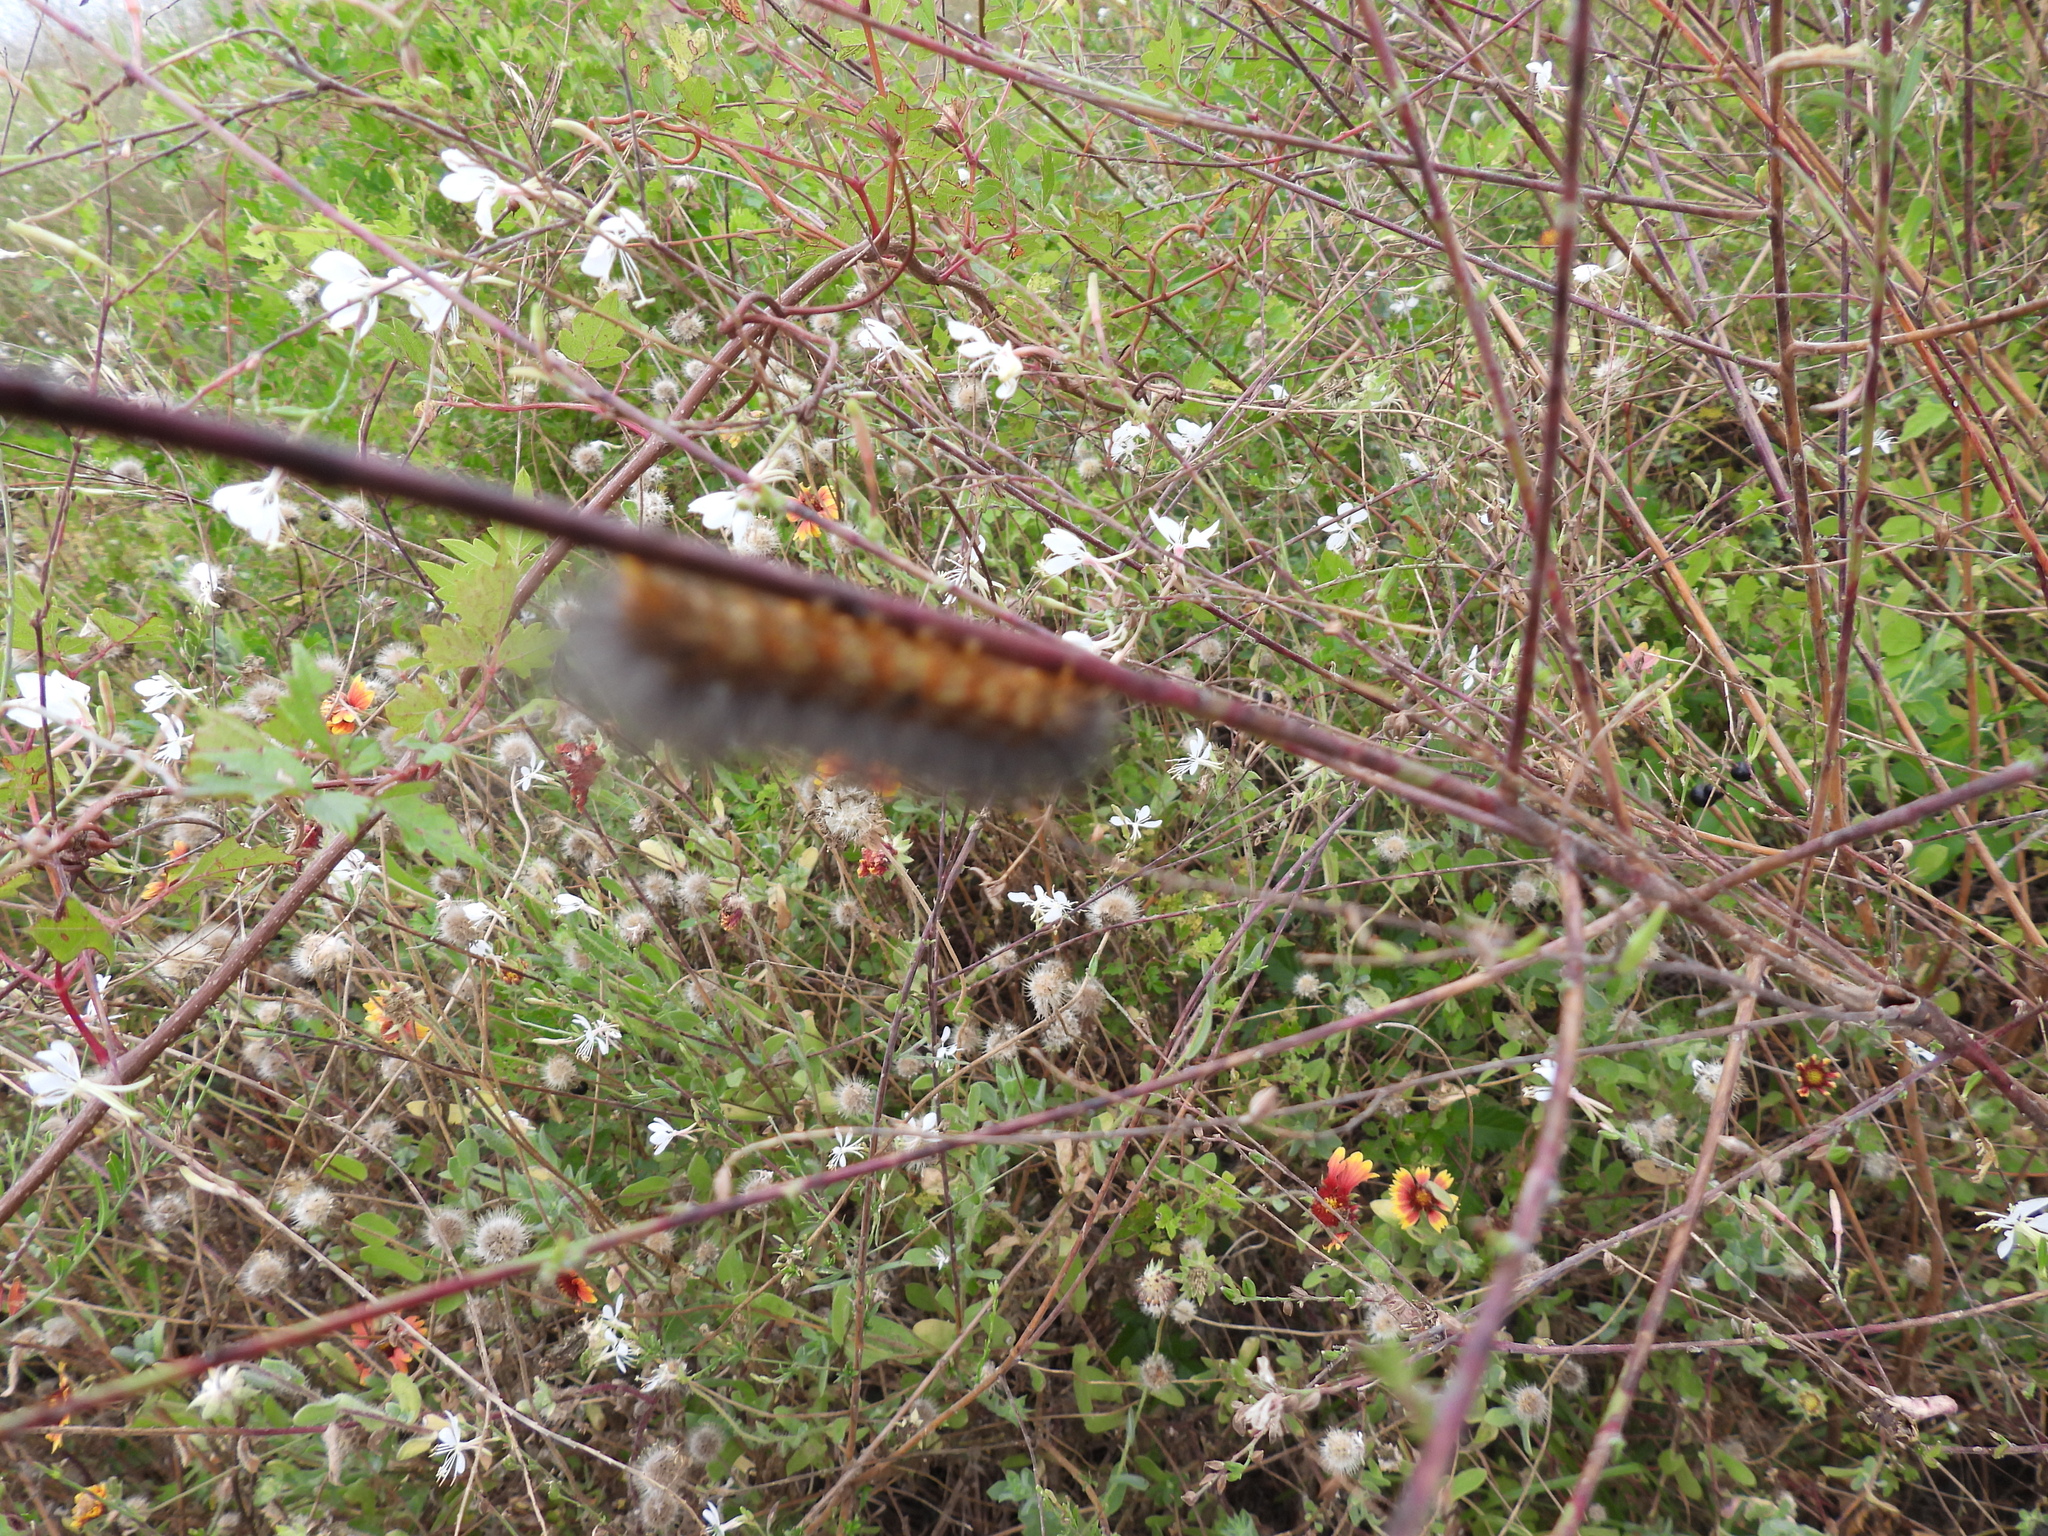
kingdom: Animalia
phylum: Arthropoda
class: Insecta
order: Lepidoptera
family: Erebidae
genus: Estigmene
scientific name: Estigmene acrea
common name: Salt marsh moth
